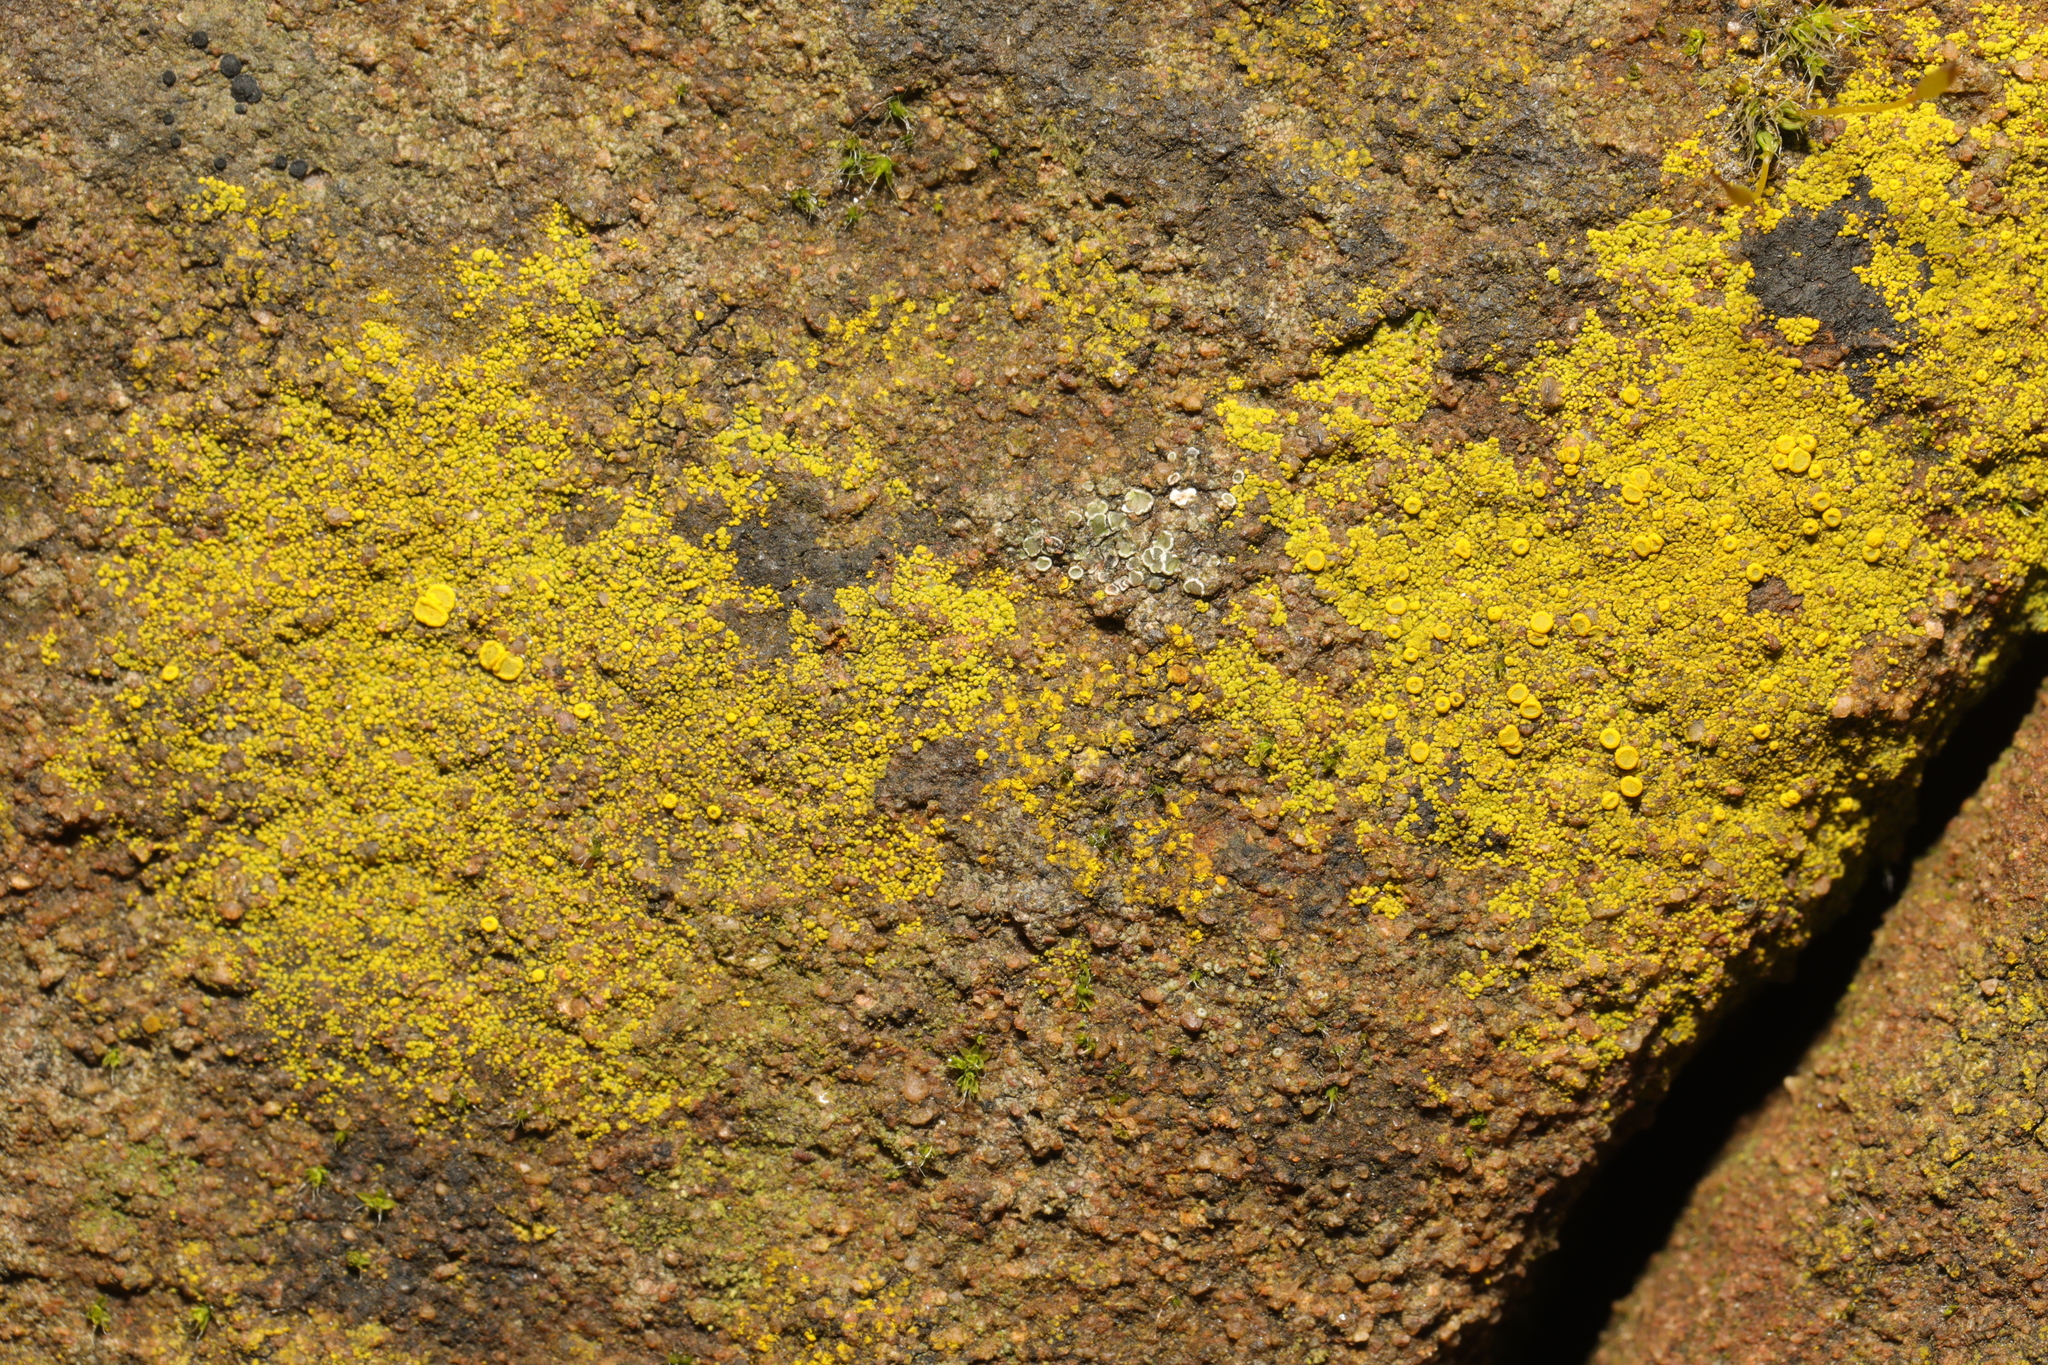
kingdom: Fungi
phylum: Ascomycota
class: Candelariomycetes
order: Candelariales
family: Candelariaceae
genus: Candelariella
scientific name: Candelariella vitellina
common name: Common goldspeck
